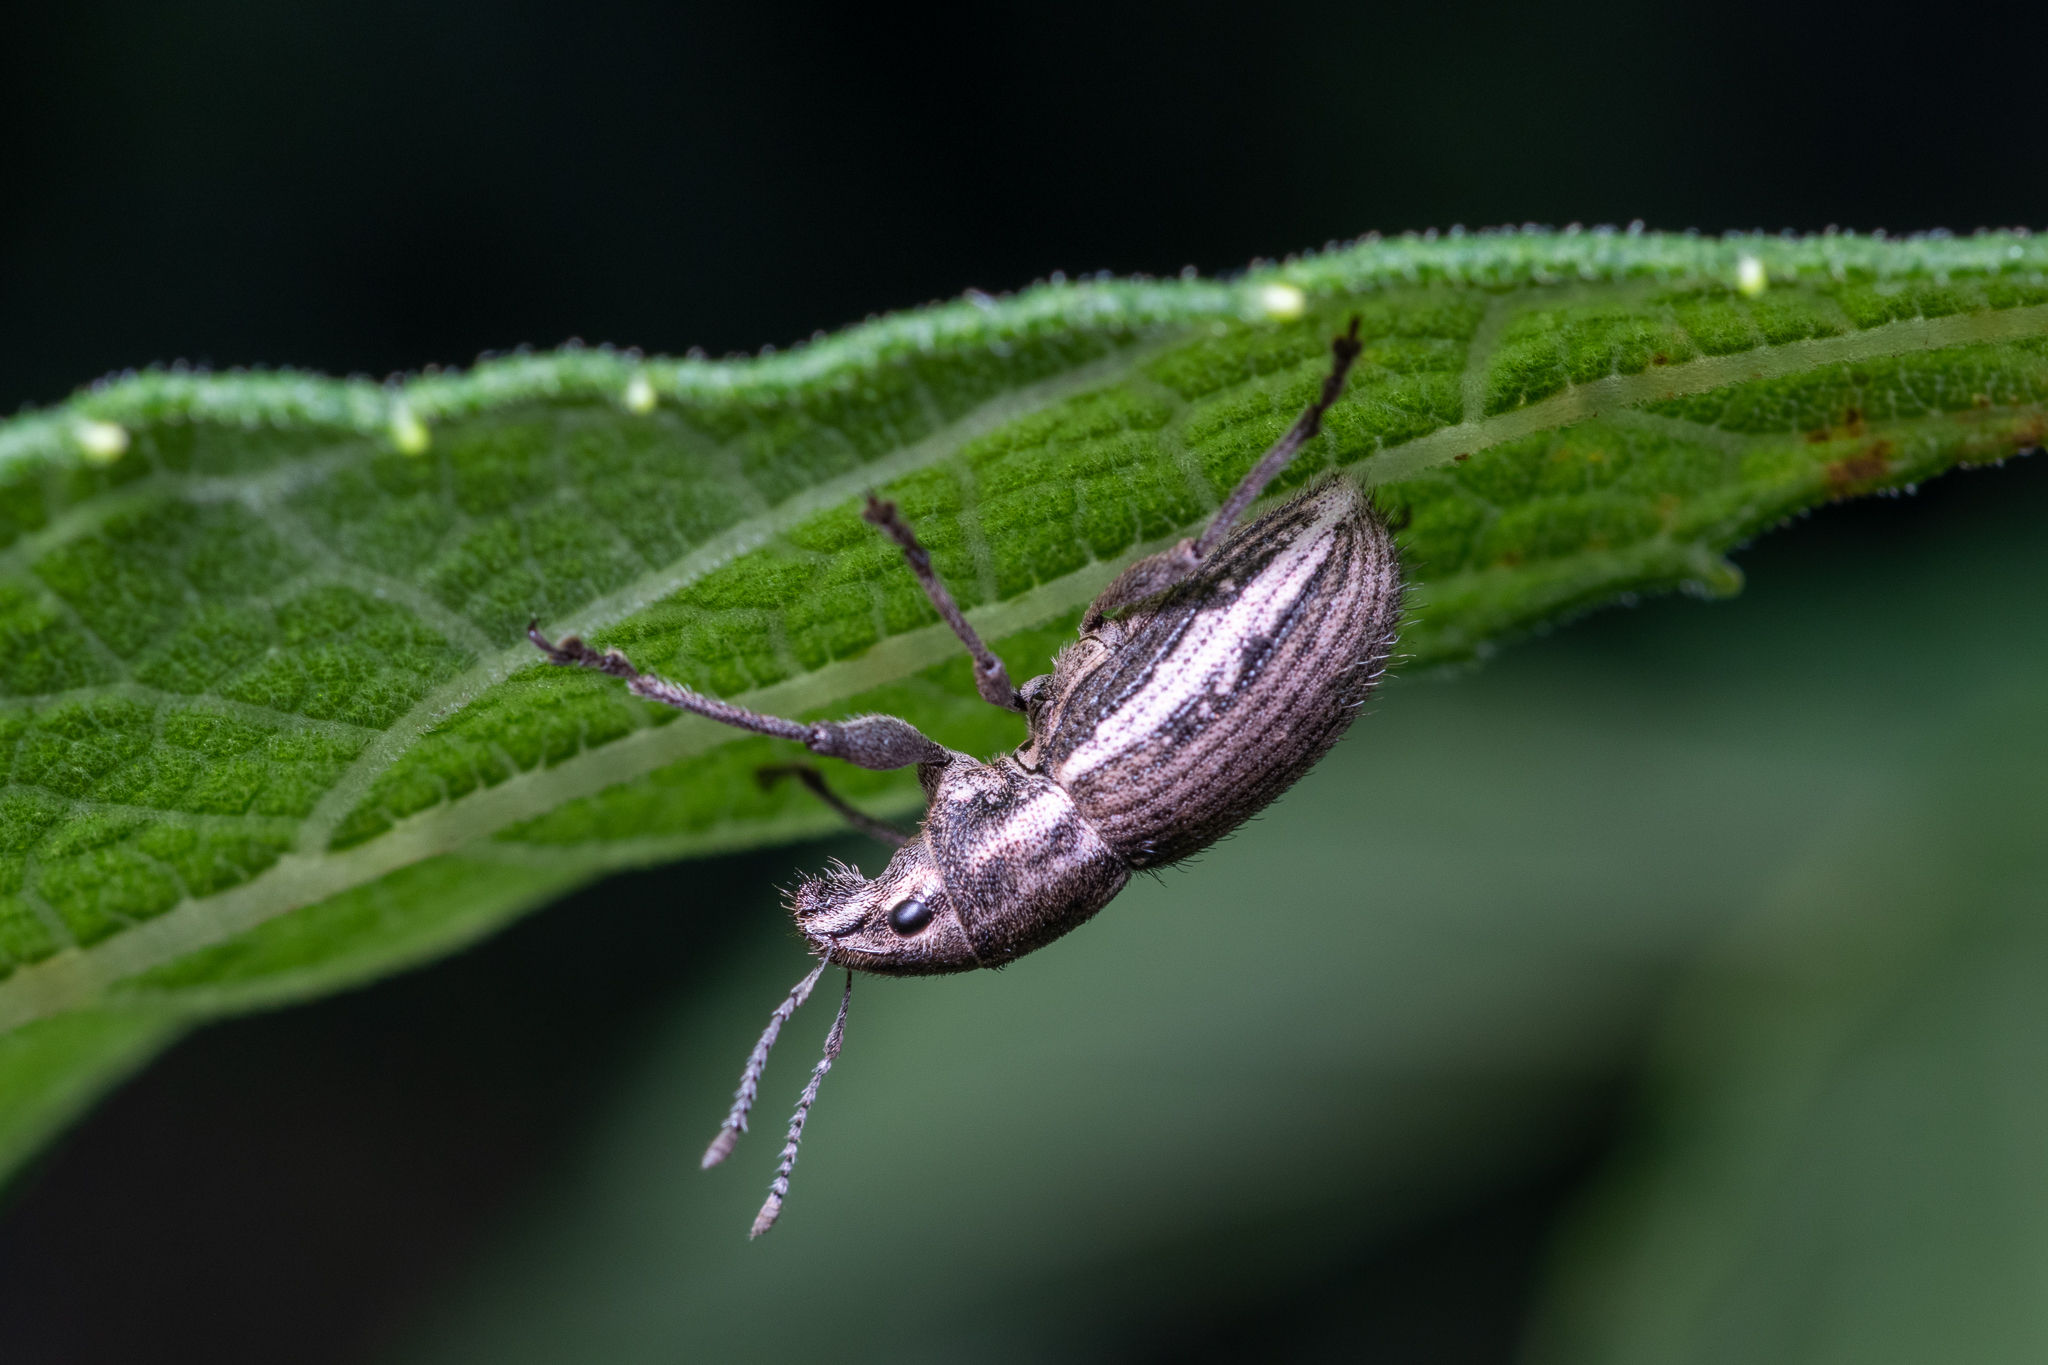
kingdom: Animalia
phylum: Arthropoda
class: Insecta
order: Coleoptera
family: Curculionidae
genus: Naupactus
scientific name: Naupactus leucoloma
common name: Whitefringed beetle
